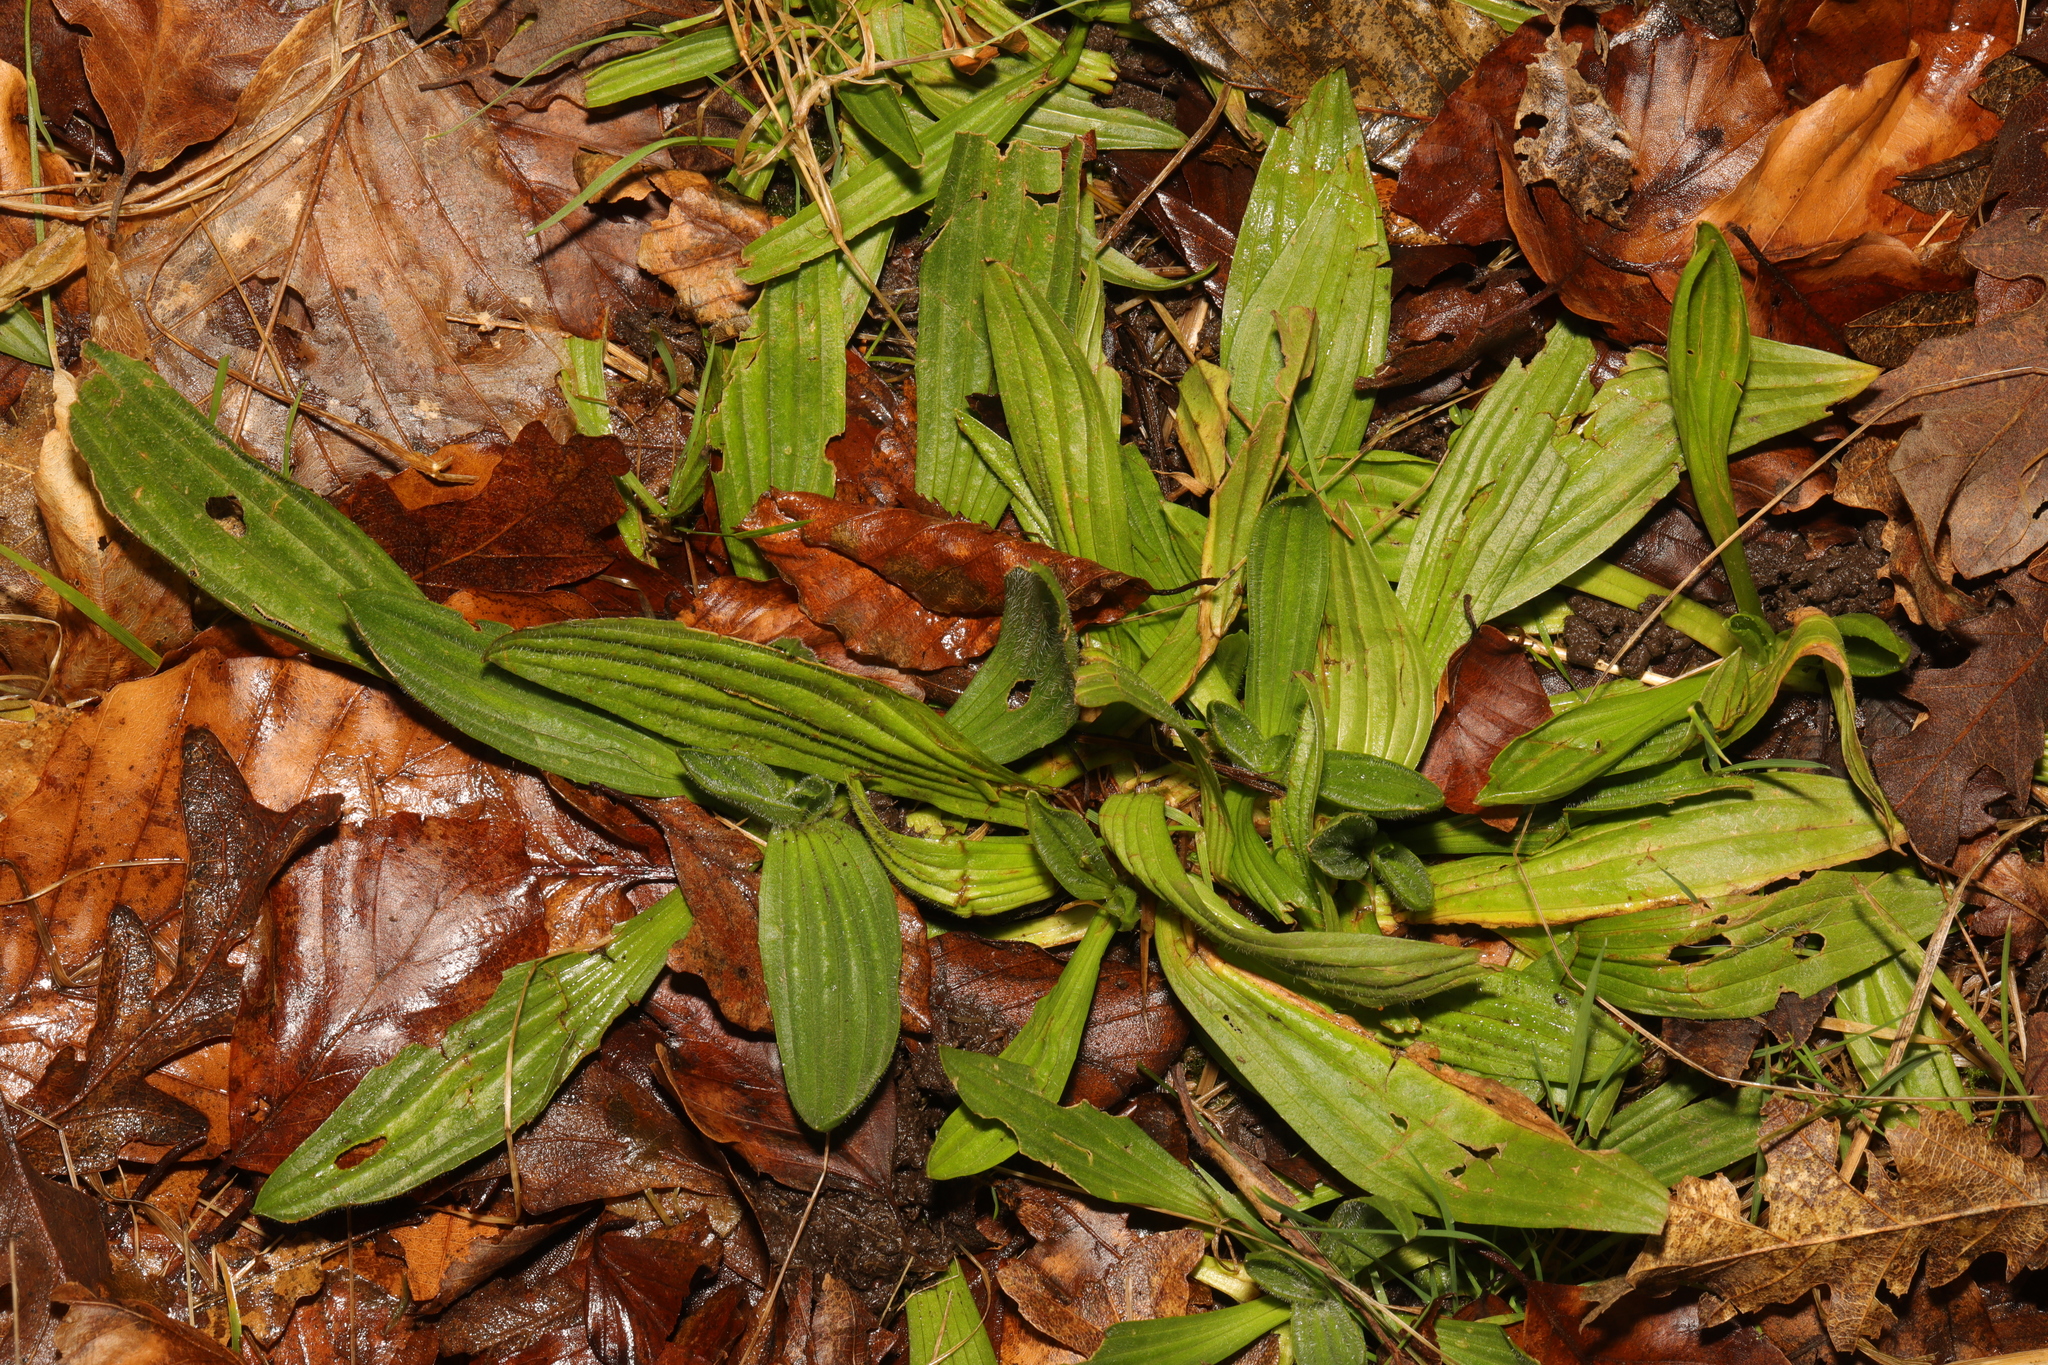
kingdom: Plantae
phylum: Tracheophyta
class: Magnoliopsida
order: Lamiales
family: Plantaginaceae
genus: Plantago
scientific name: Plantago lanceolata
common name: Ribwort plantain
